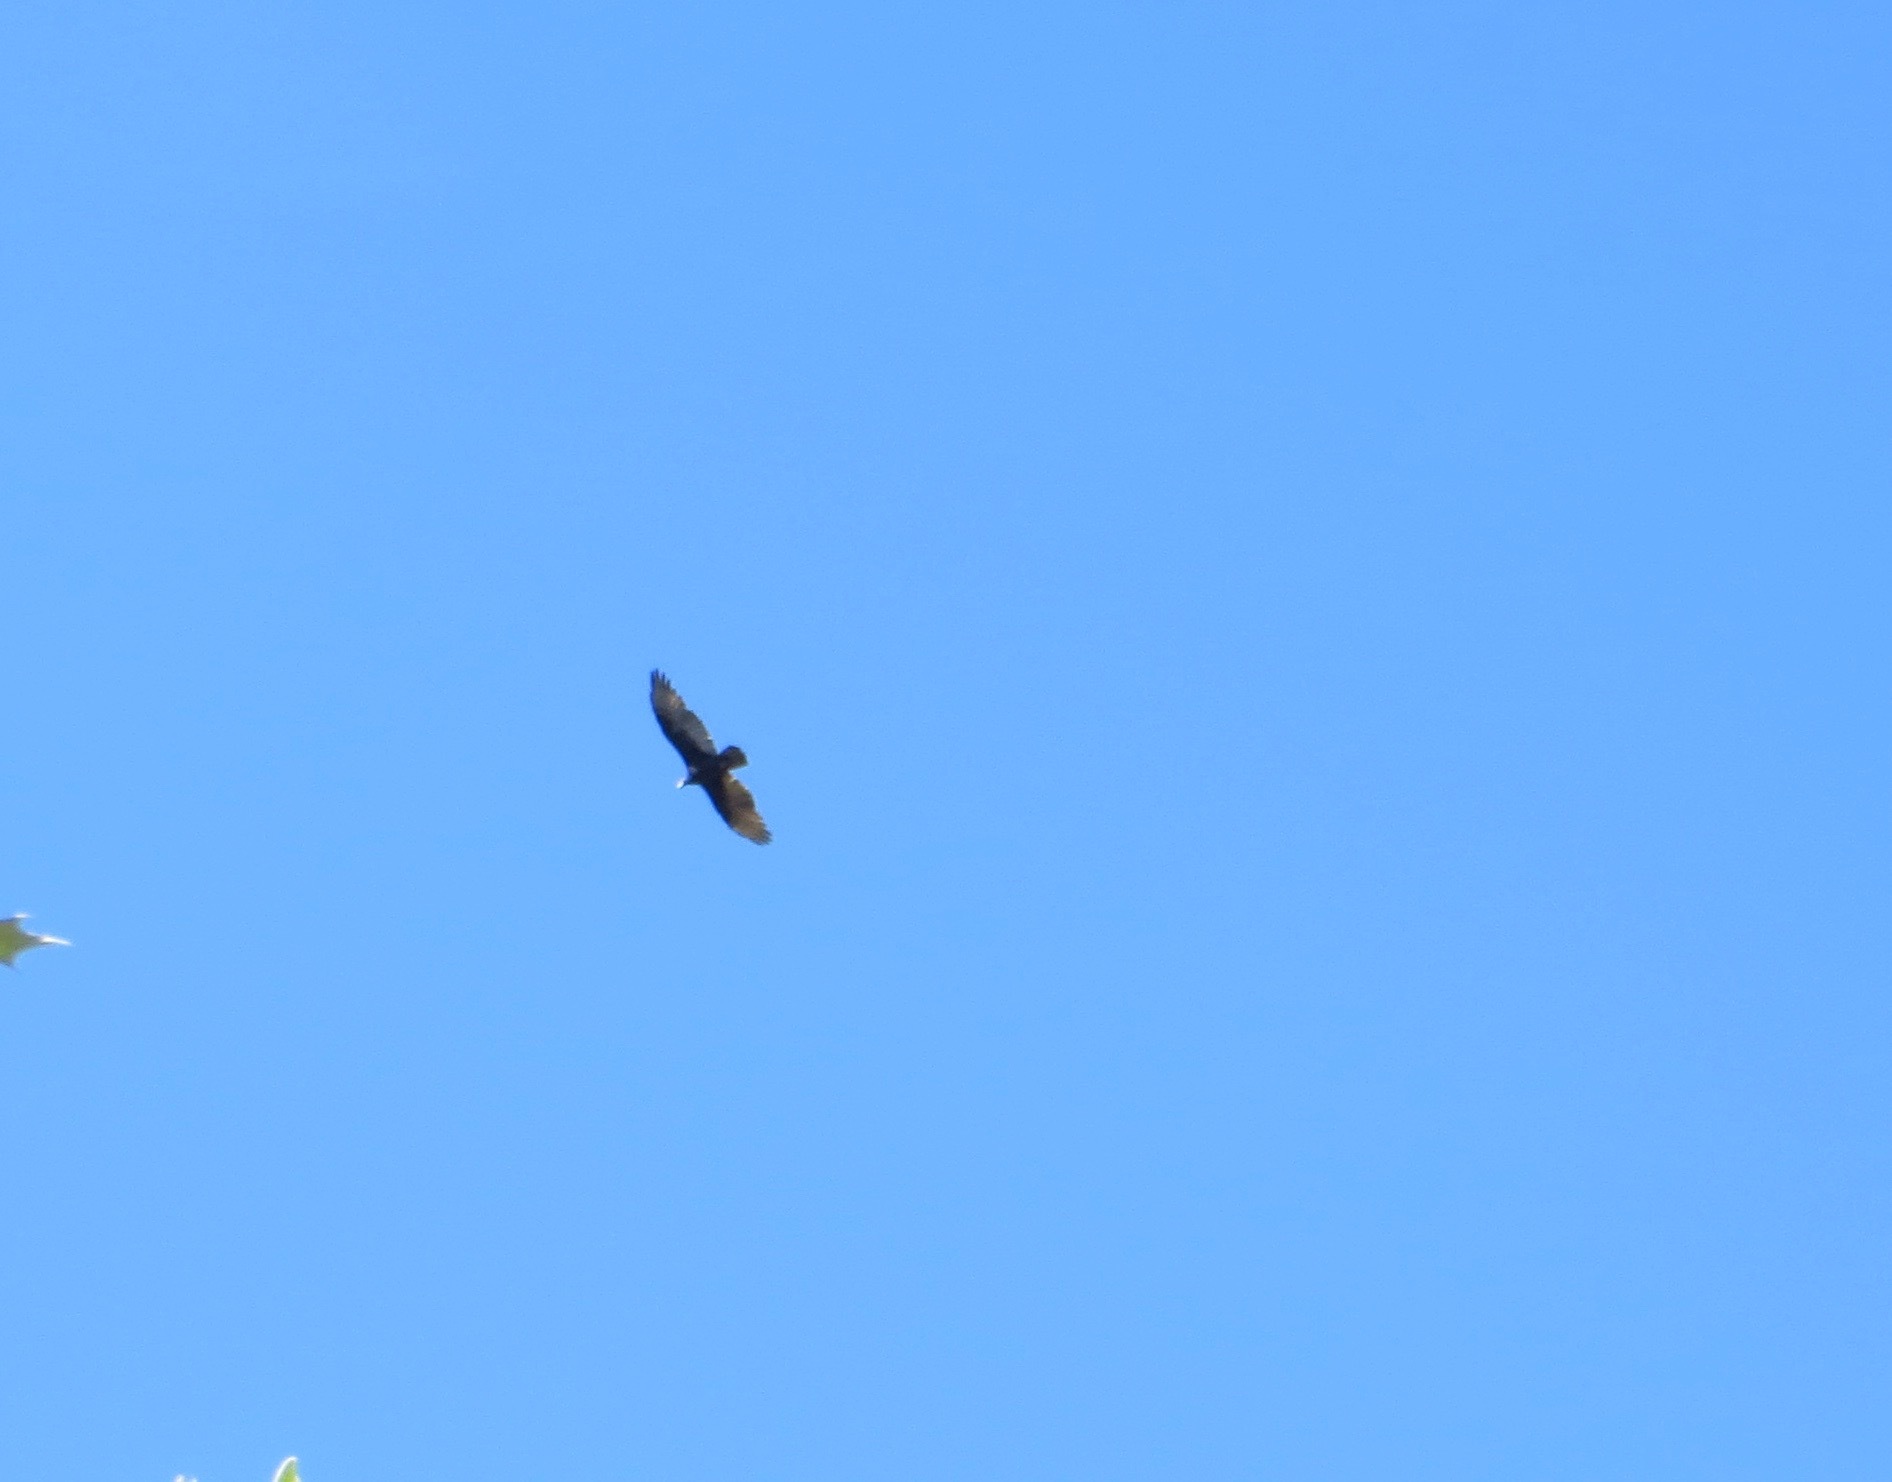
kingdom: Animalia
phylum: Chordata
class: Aves
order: Accipitriformes
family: Cathartidae
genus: Cathartes
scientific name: Cathartes aura
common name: Turkey vulture
